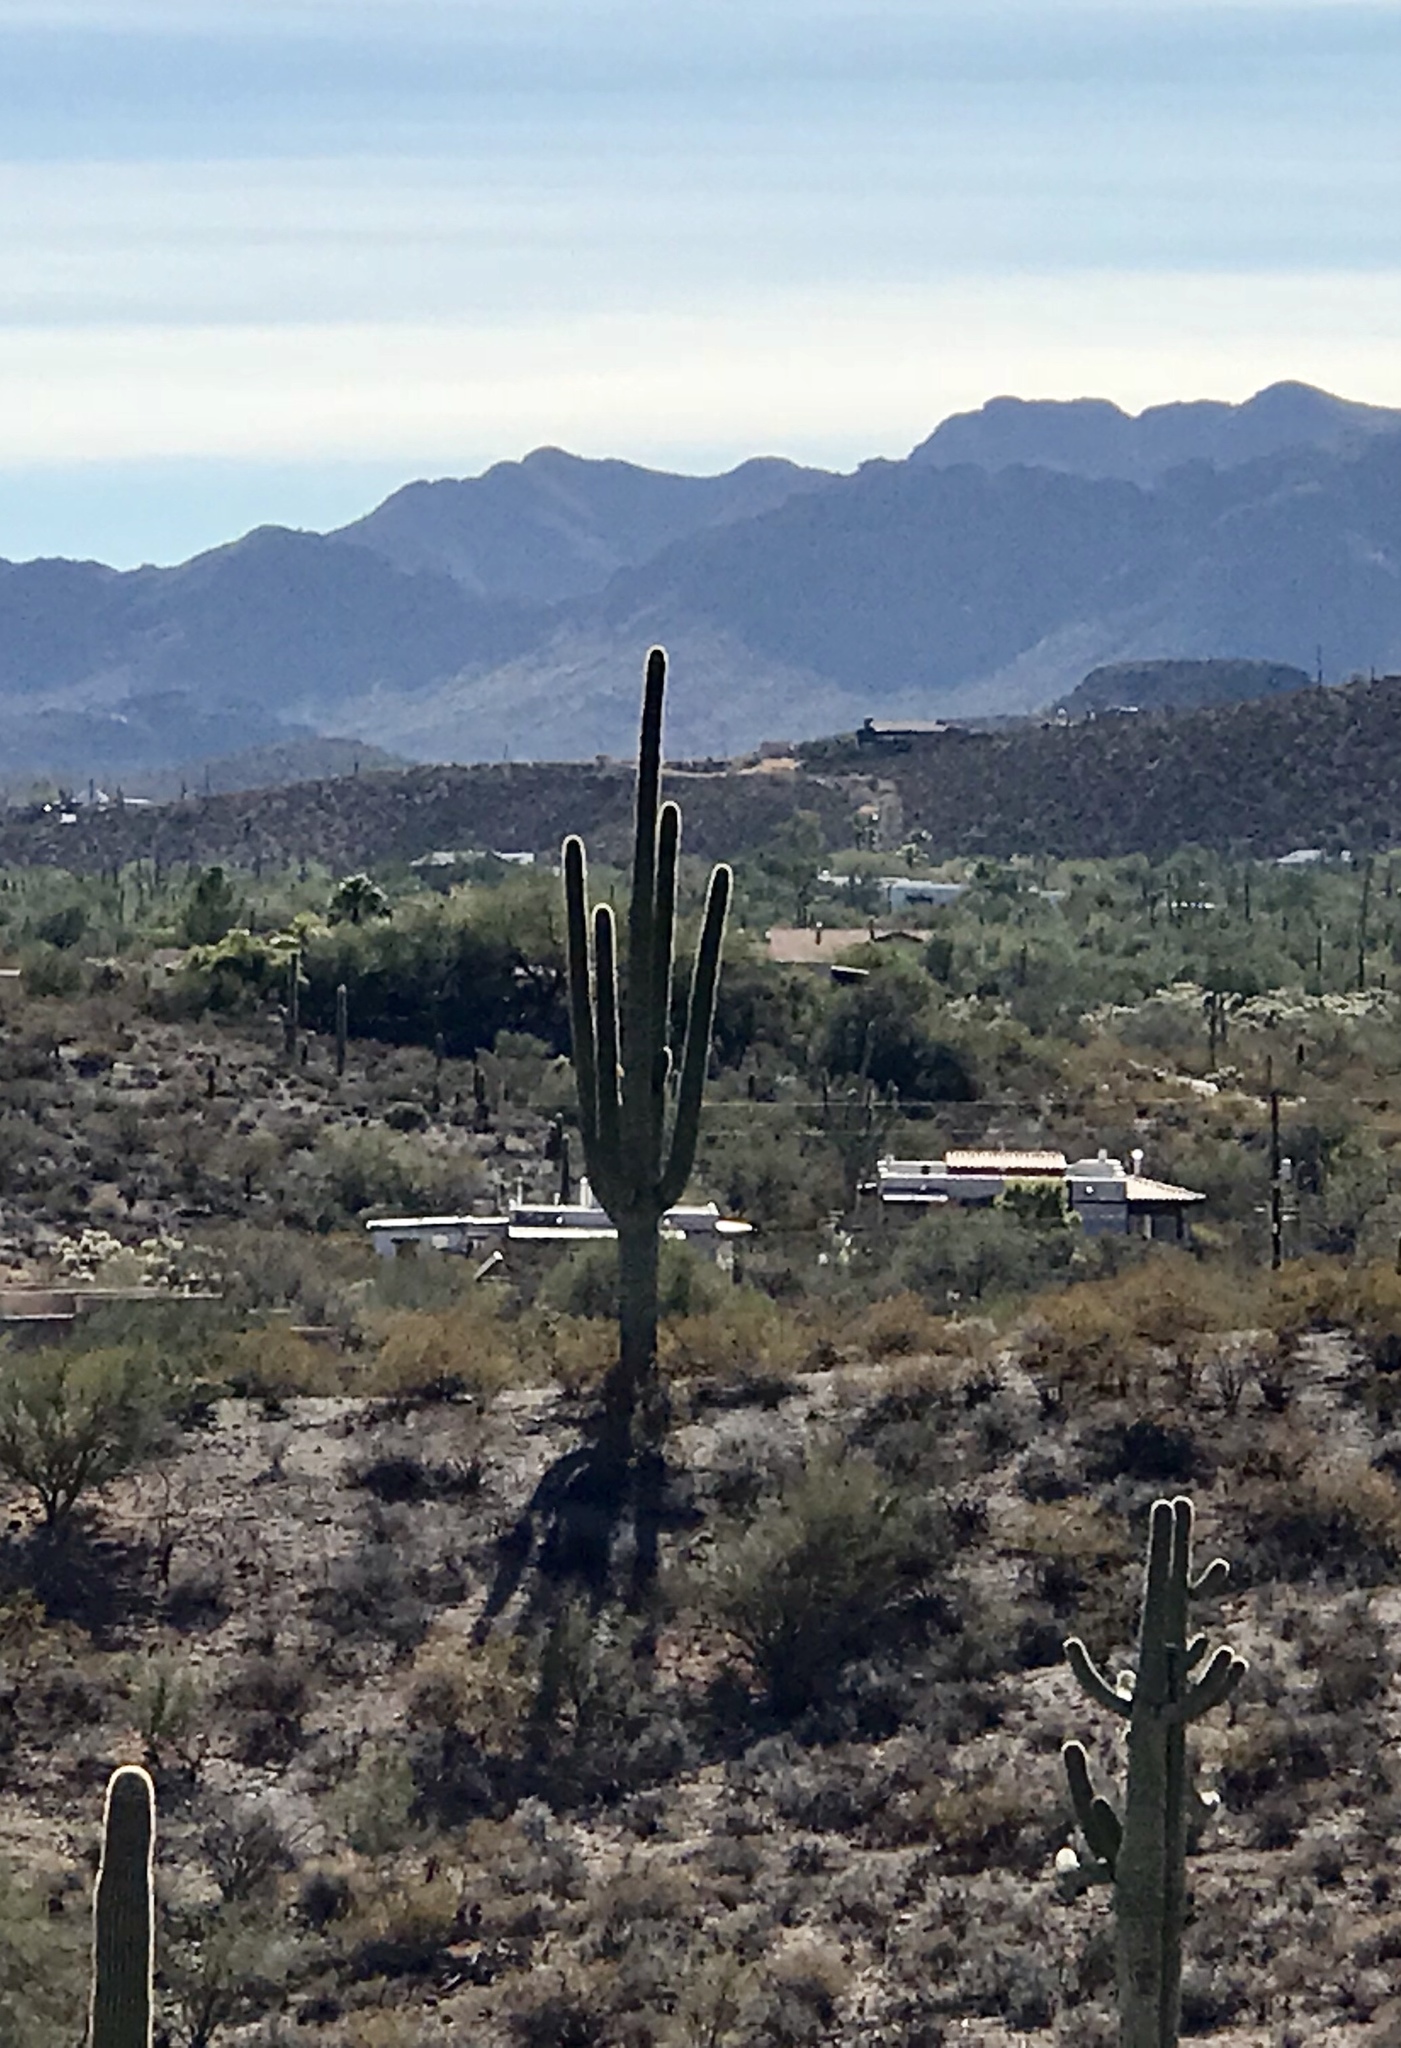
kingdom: Plantae
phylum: Tracheophyta
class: Magnoliopsida
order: Caryophyllales
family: Cactaceae
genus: Carnegiea
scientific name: Carnegiea gigantea
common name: Saguaro
